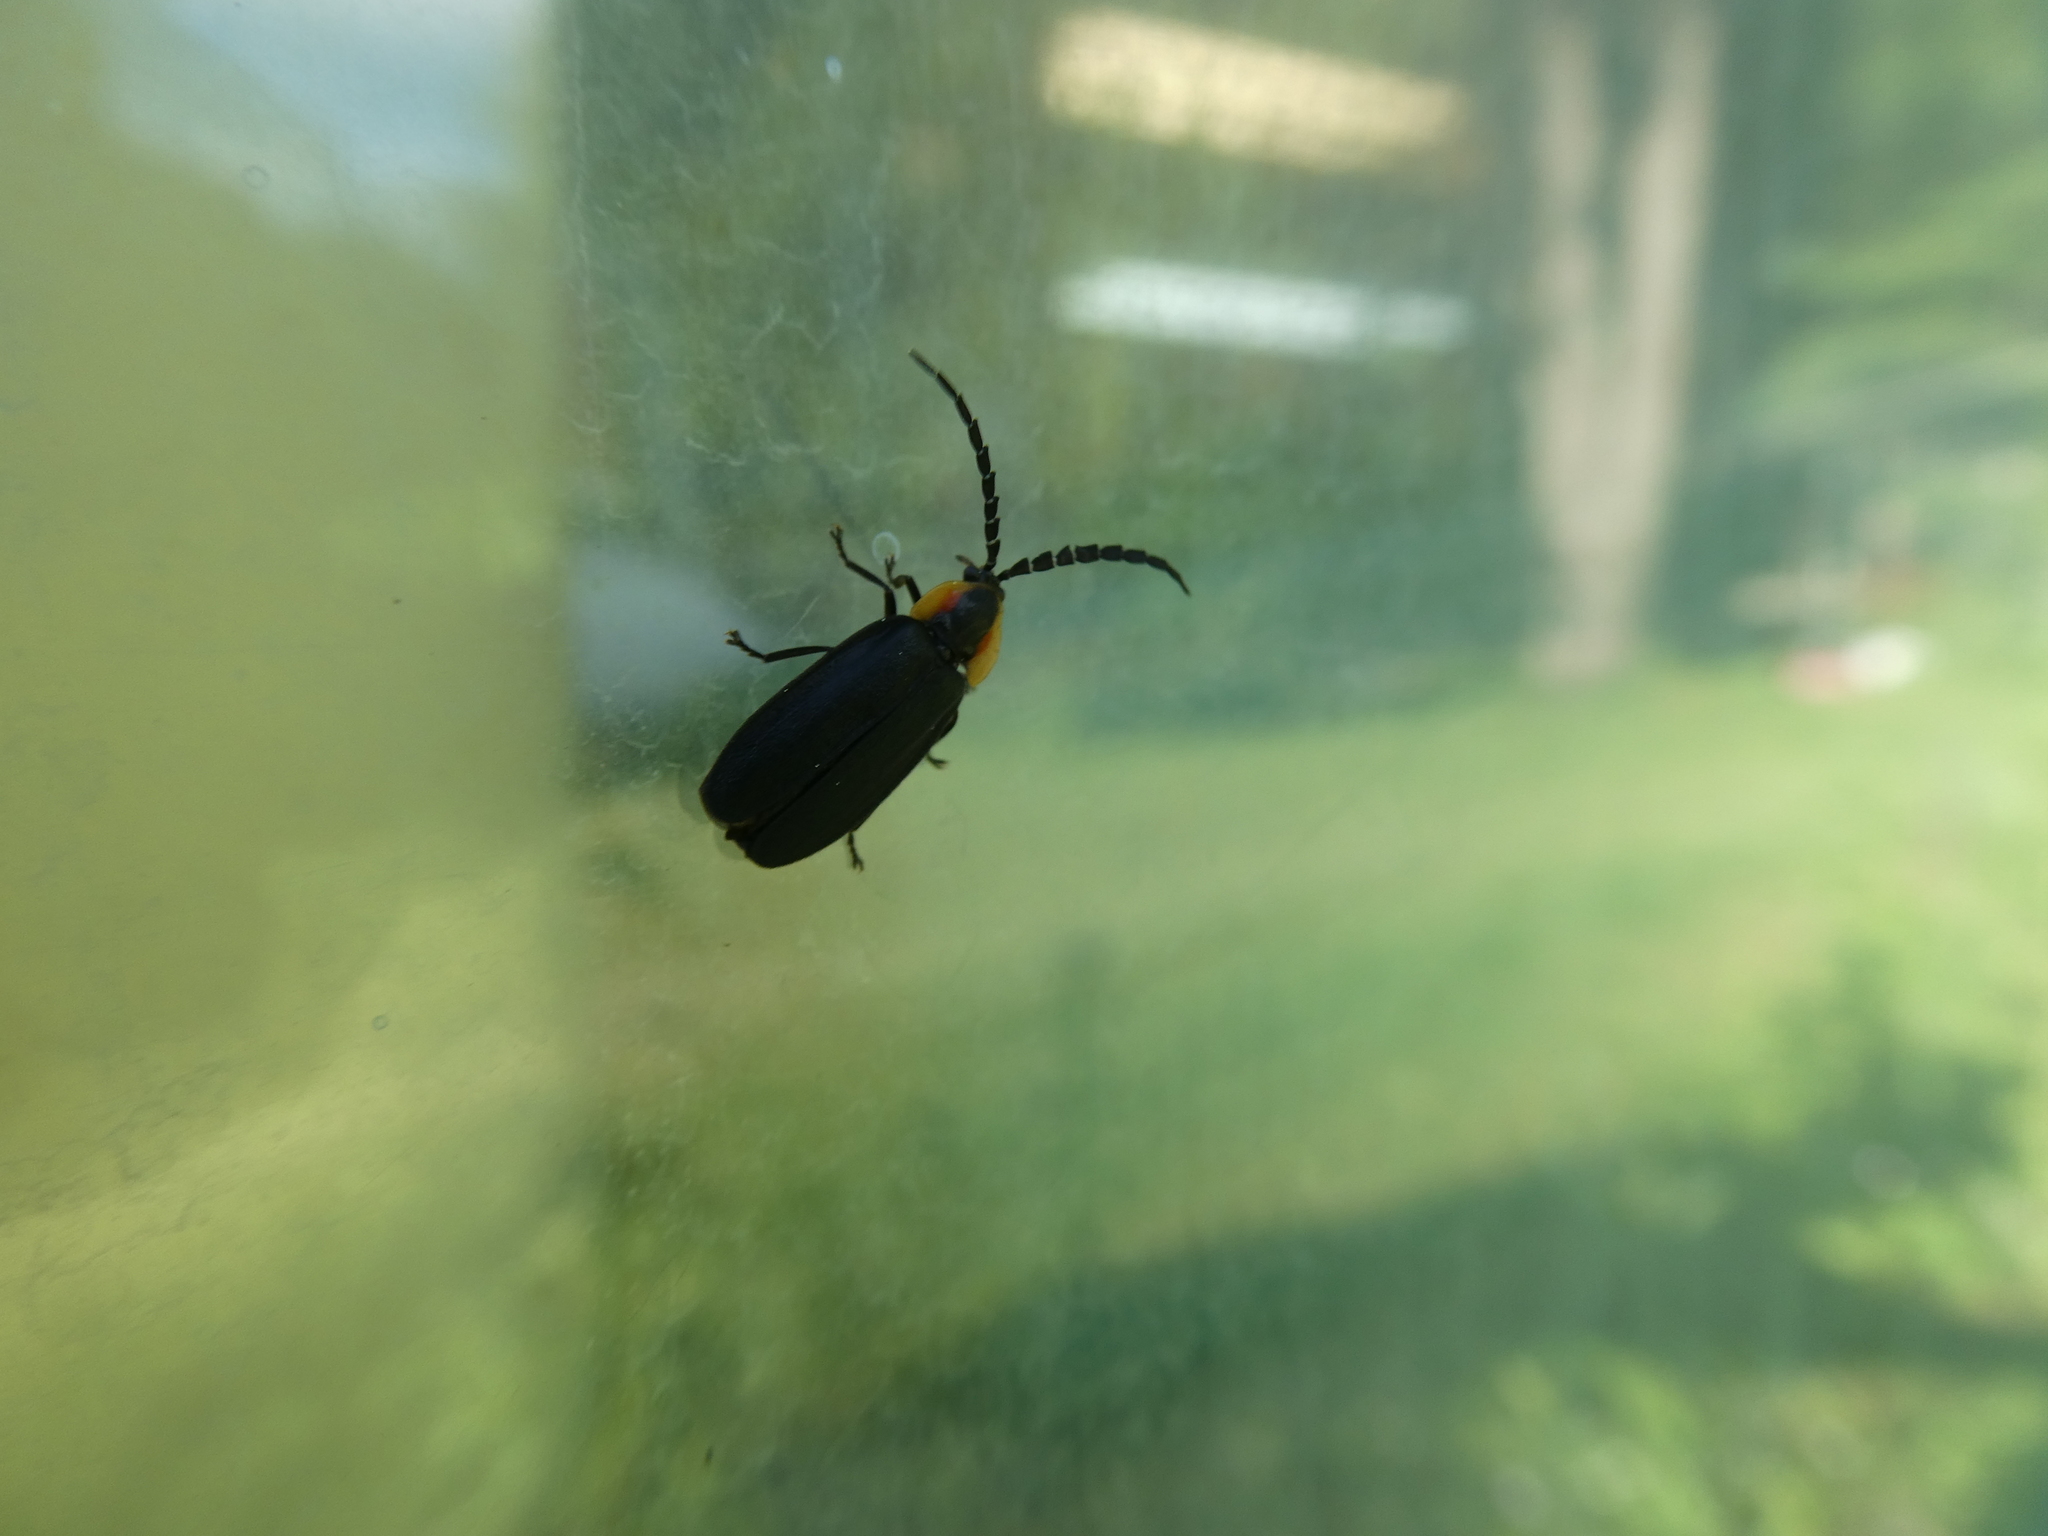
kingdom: Animalia
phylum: Arthropoda
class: Insecta
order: Coleoptera
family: Lampyridae
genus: Lucidota
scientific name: Lucidota atra
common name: Black firefly
